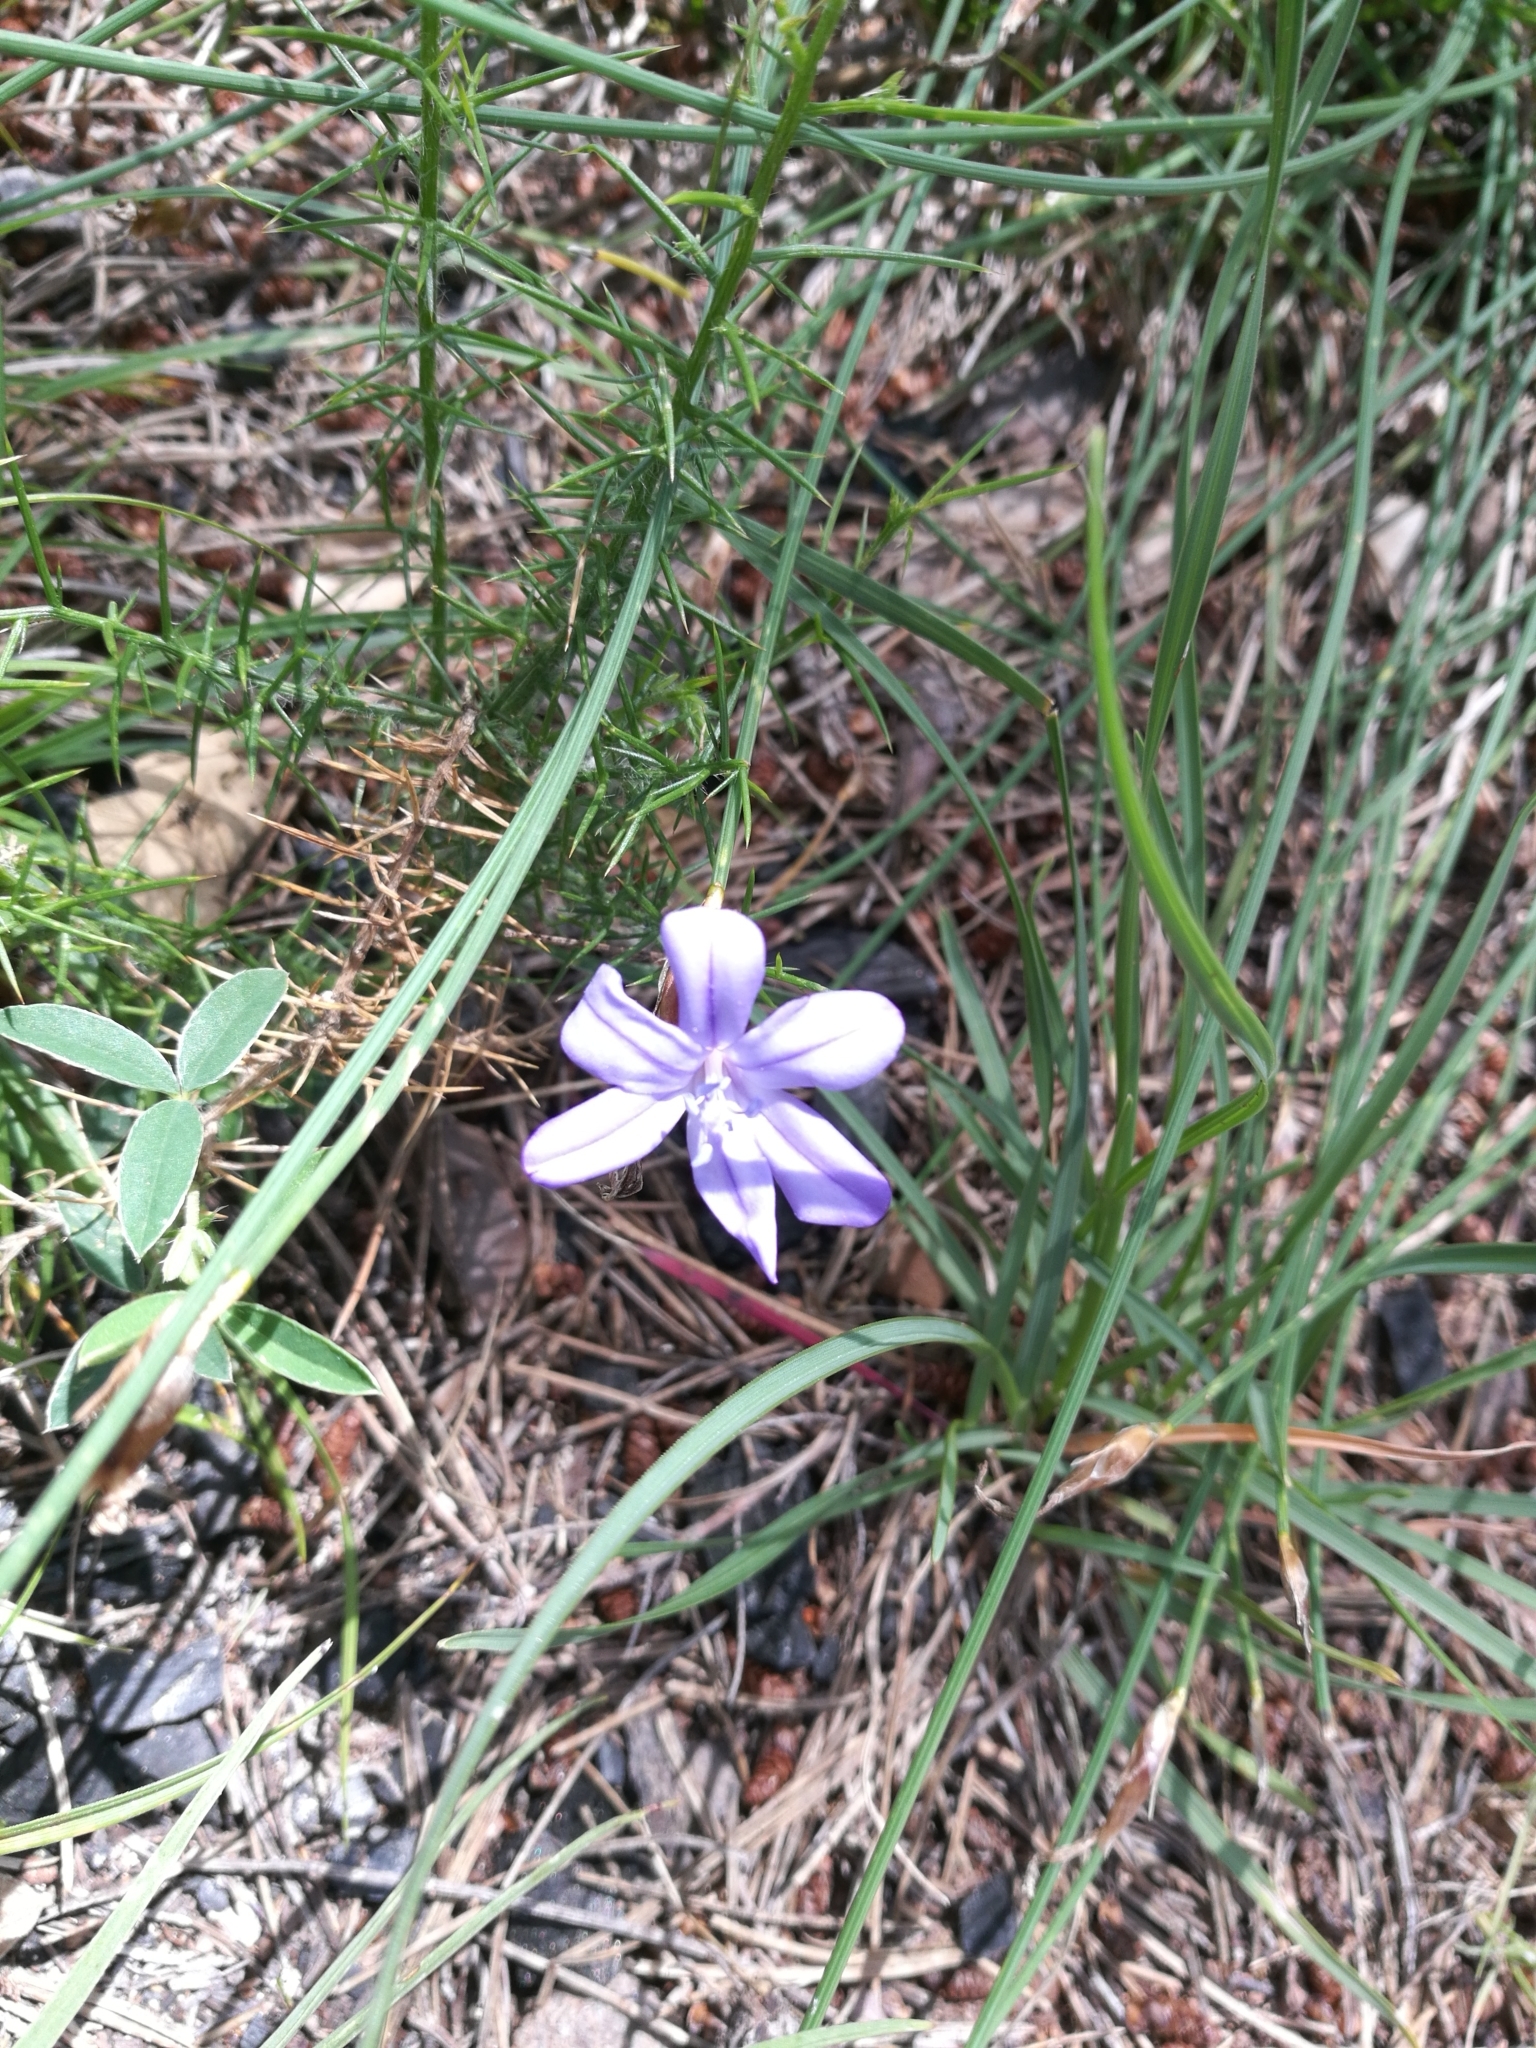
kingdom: Plantae
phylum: Tracheophyta
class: Liliopsida
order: Asparagales
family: Asparagaceae
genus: Aphyllanthes
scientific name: Aphyllanthes monspeliensis
